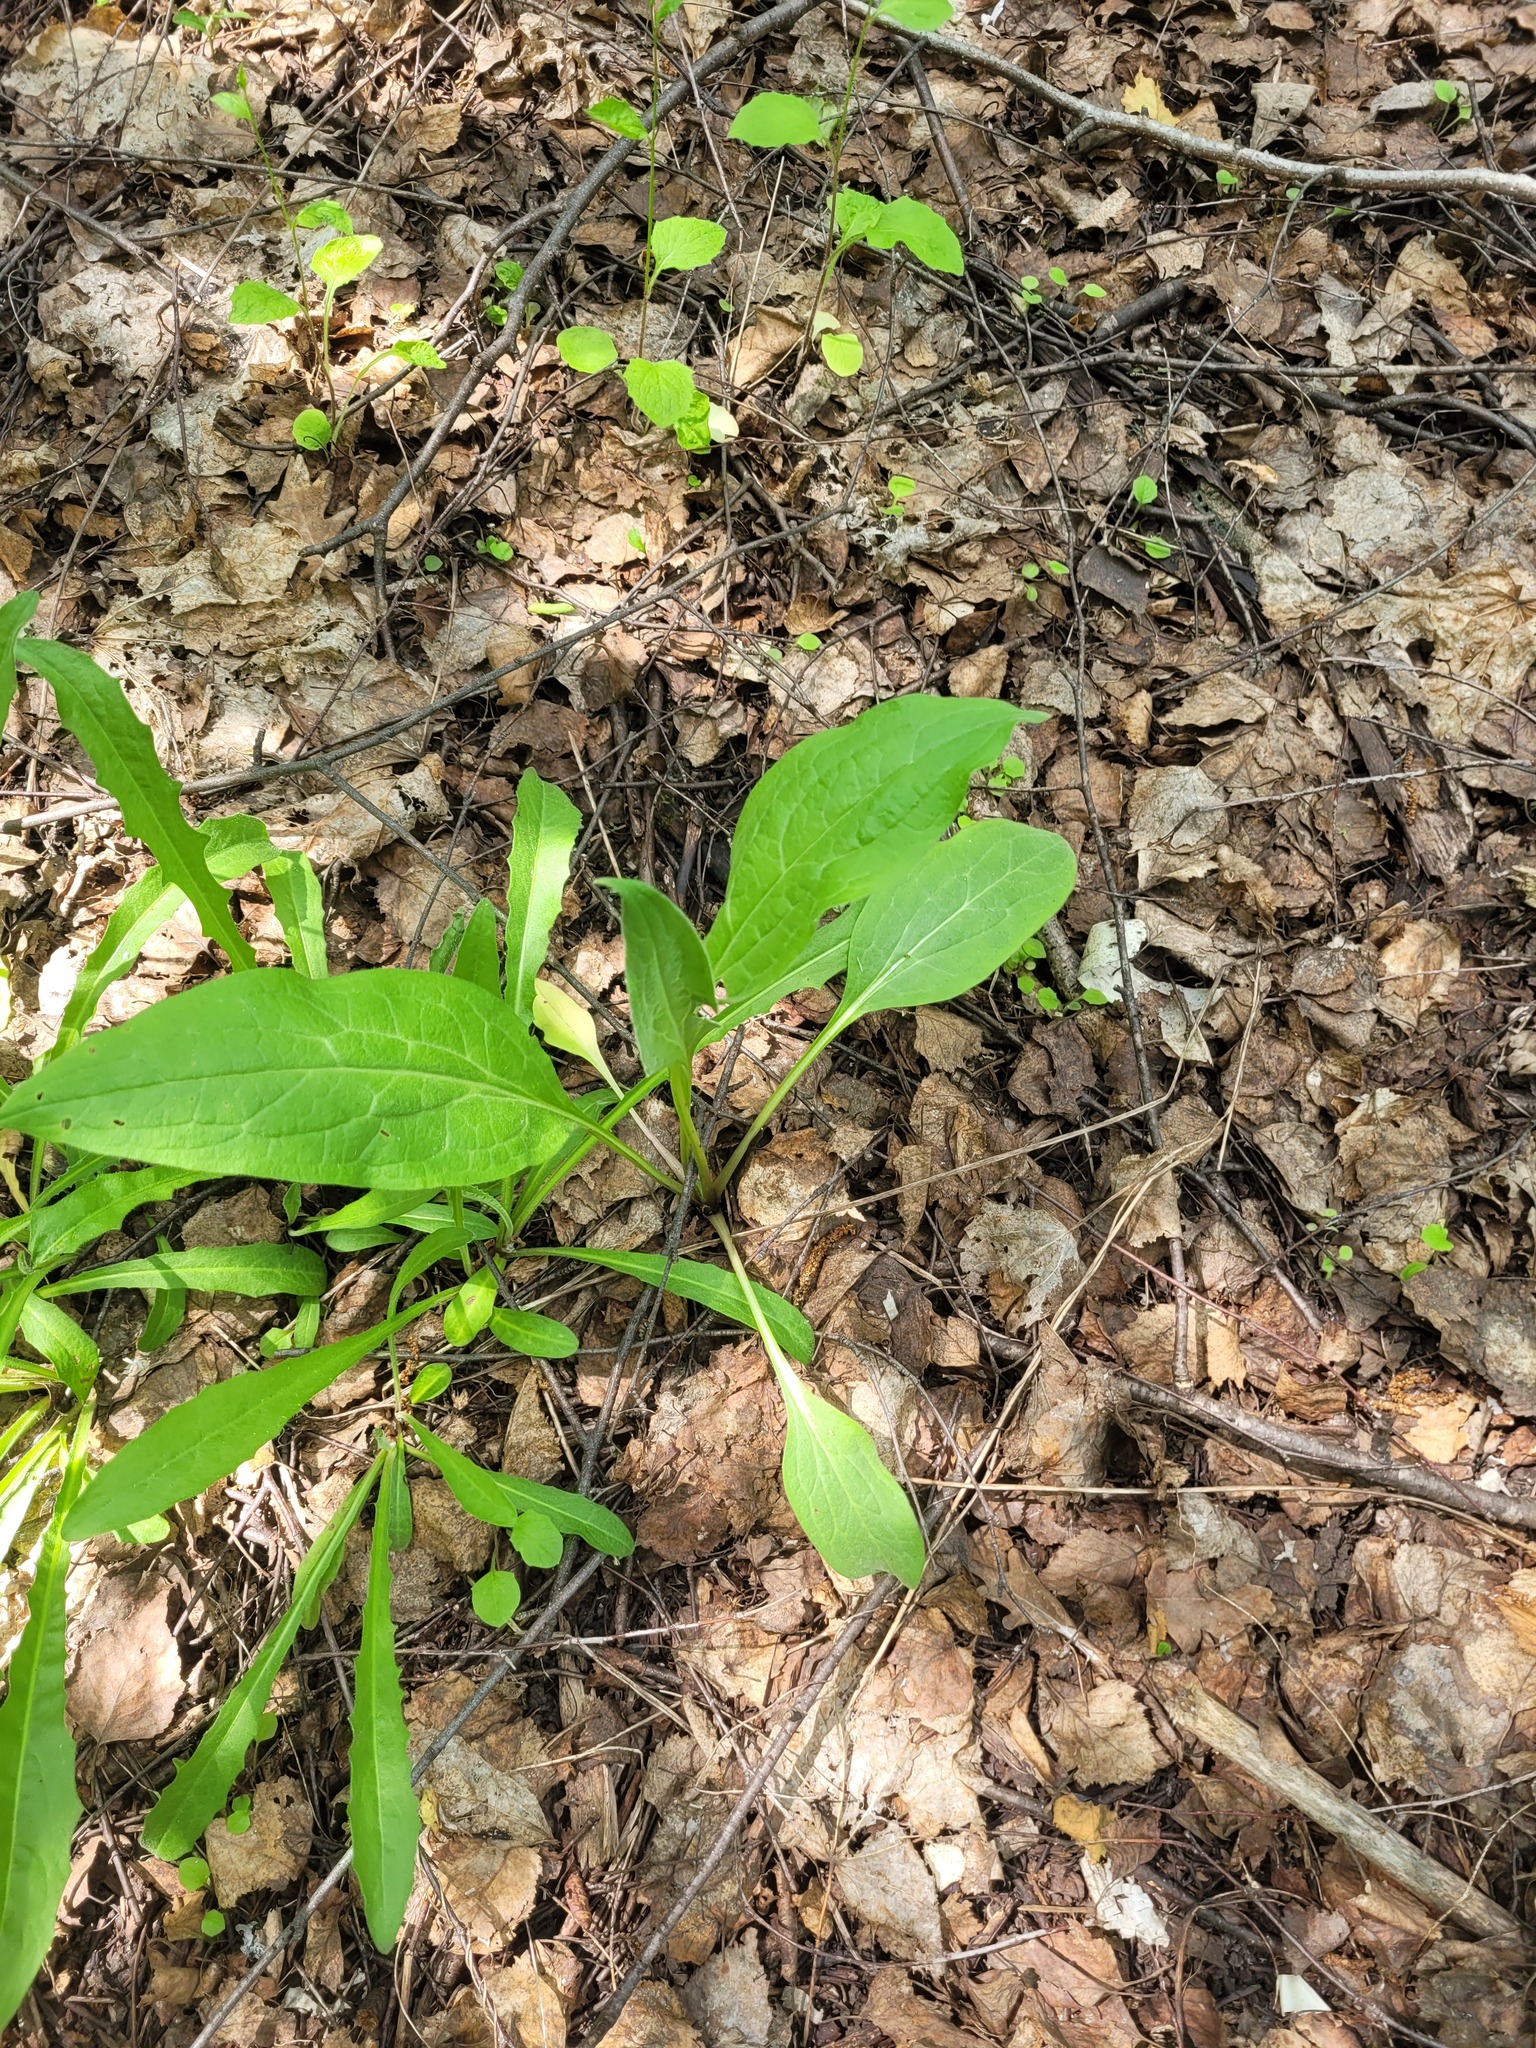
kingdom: Plantae
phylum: Tracheophyta
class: Magnoliopsida
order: Boraginales
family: Boraginaceae
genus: Cynoglossum
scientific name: Cynoglossum officinale
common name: Hound's-tongue
